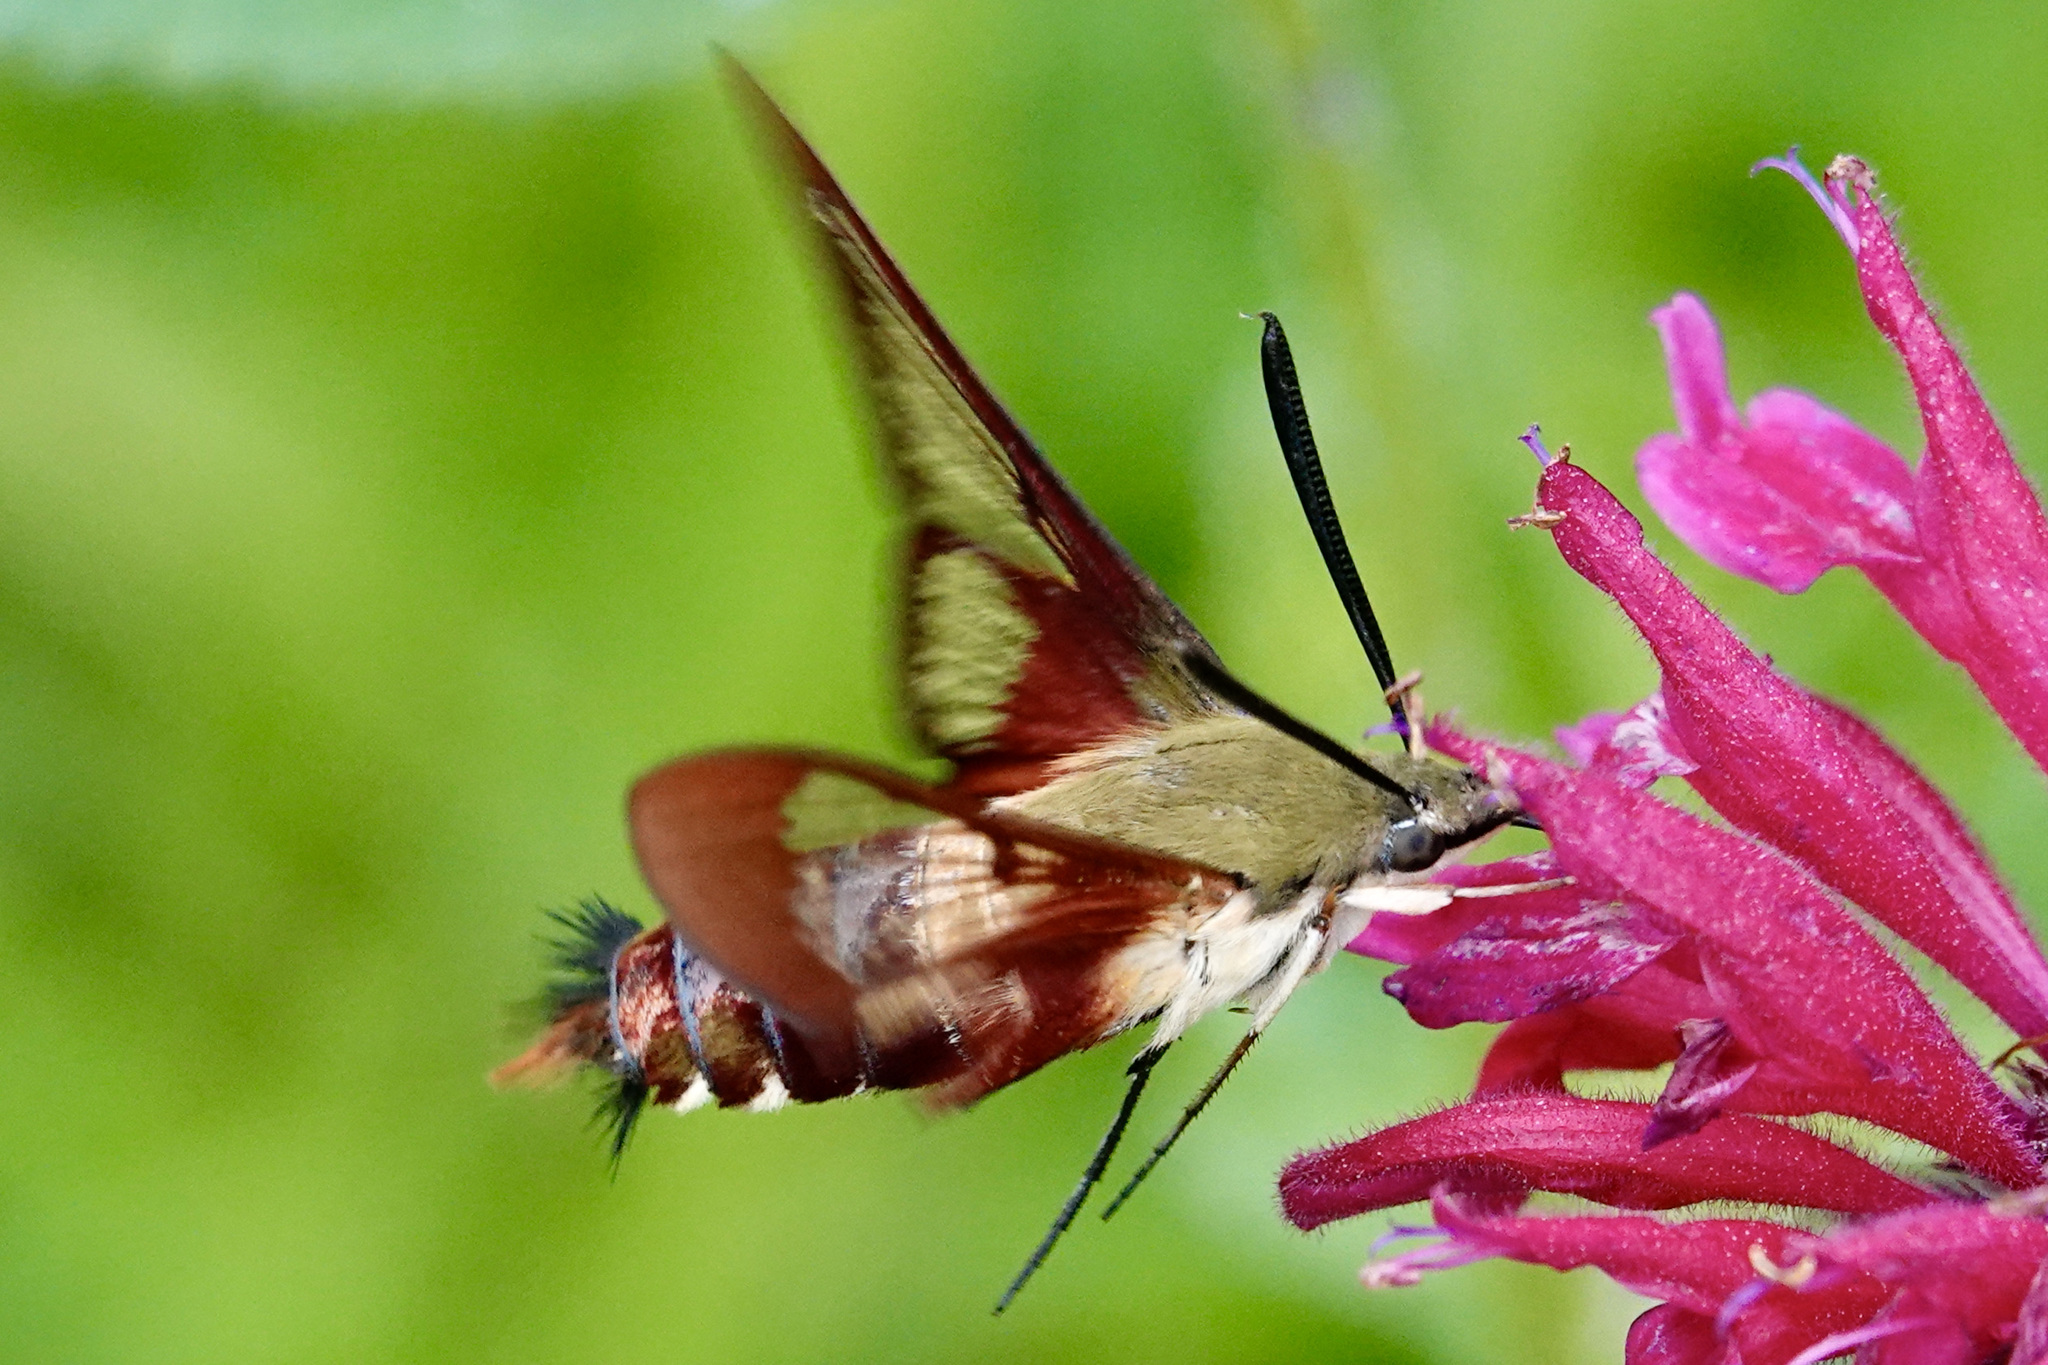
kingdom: Animalia
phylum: Arthropoda
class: Insecta
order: Lepidoptera
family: Sphingidae
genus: Hemaris
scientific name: Hemaris thysbe
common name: Common clear-wing
